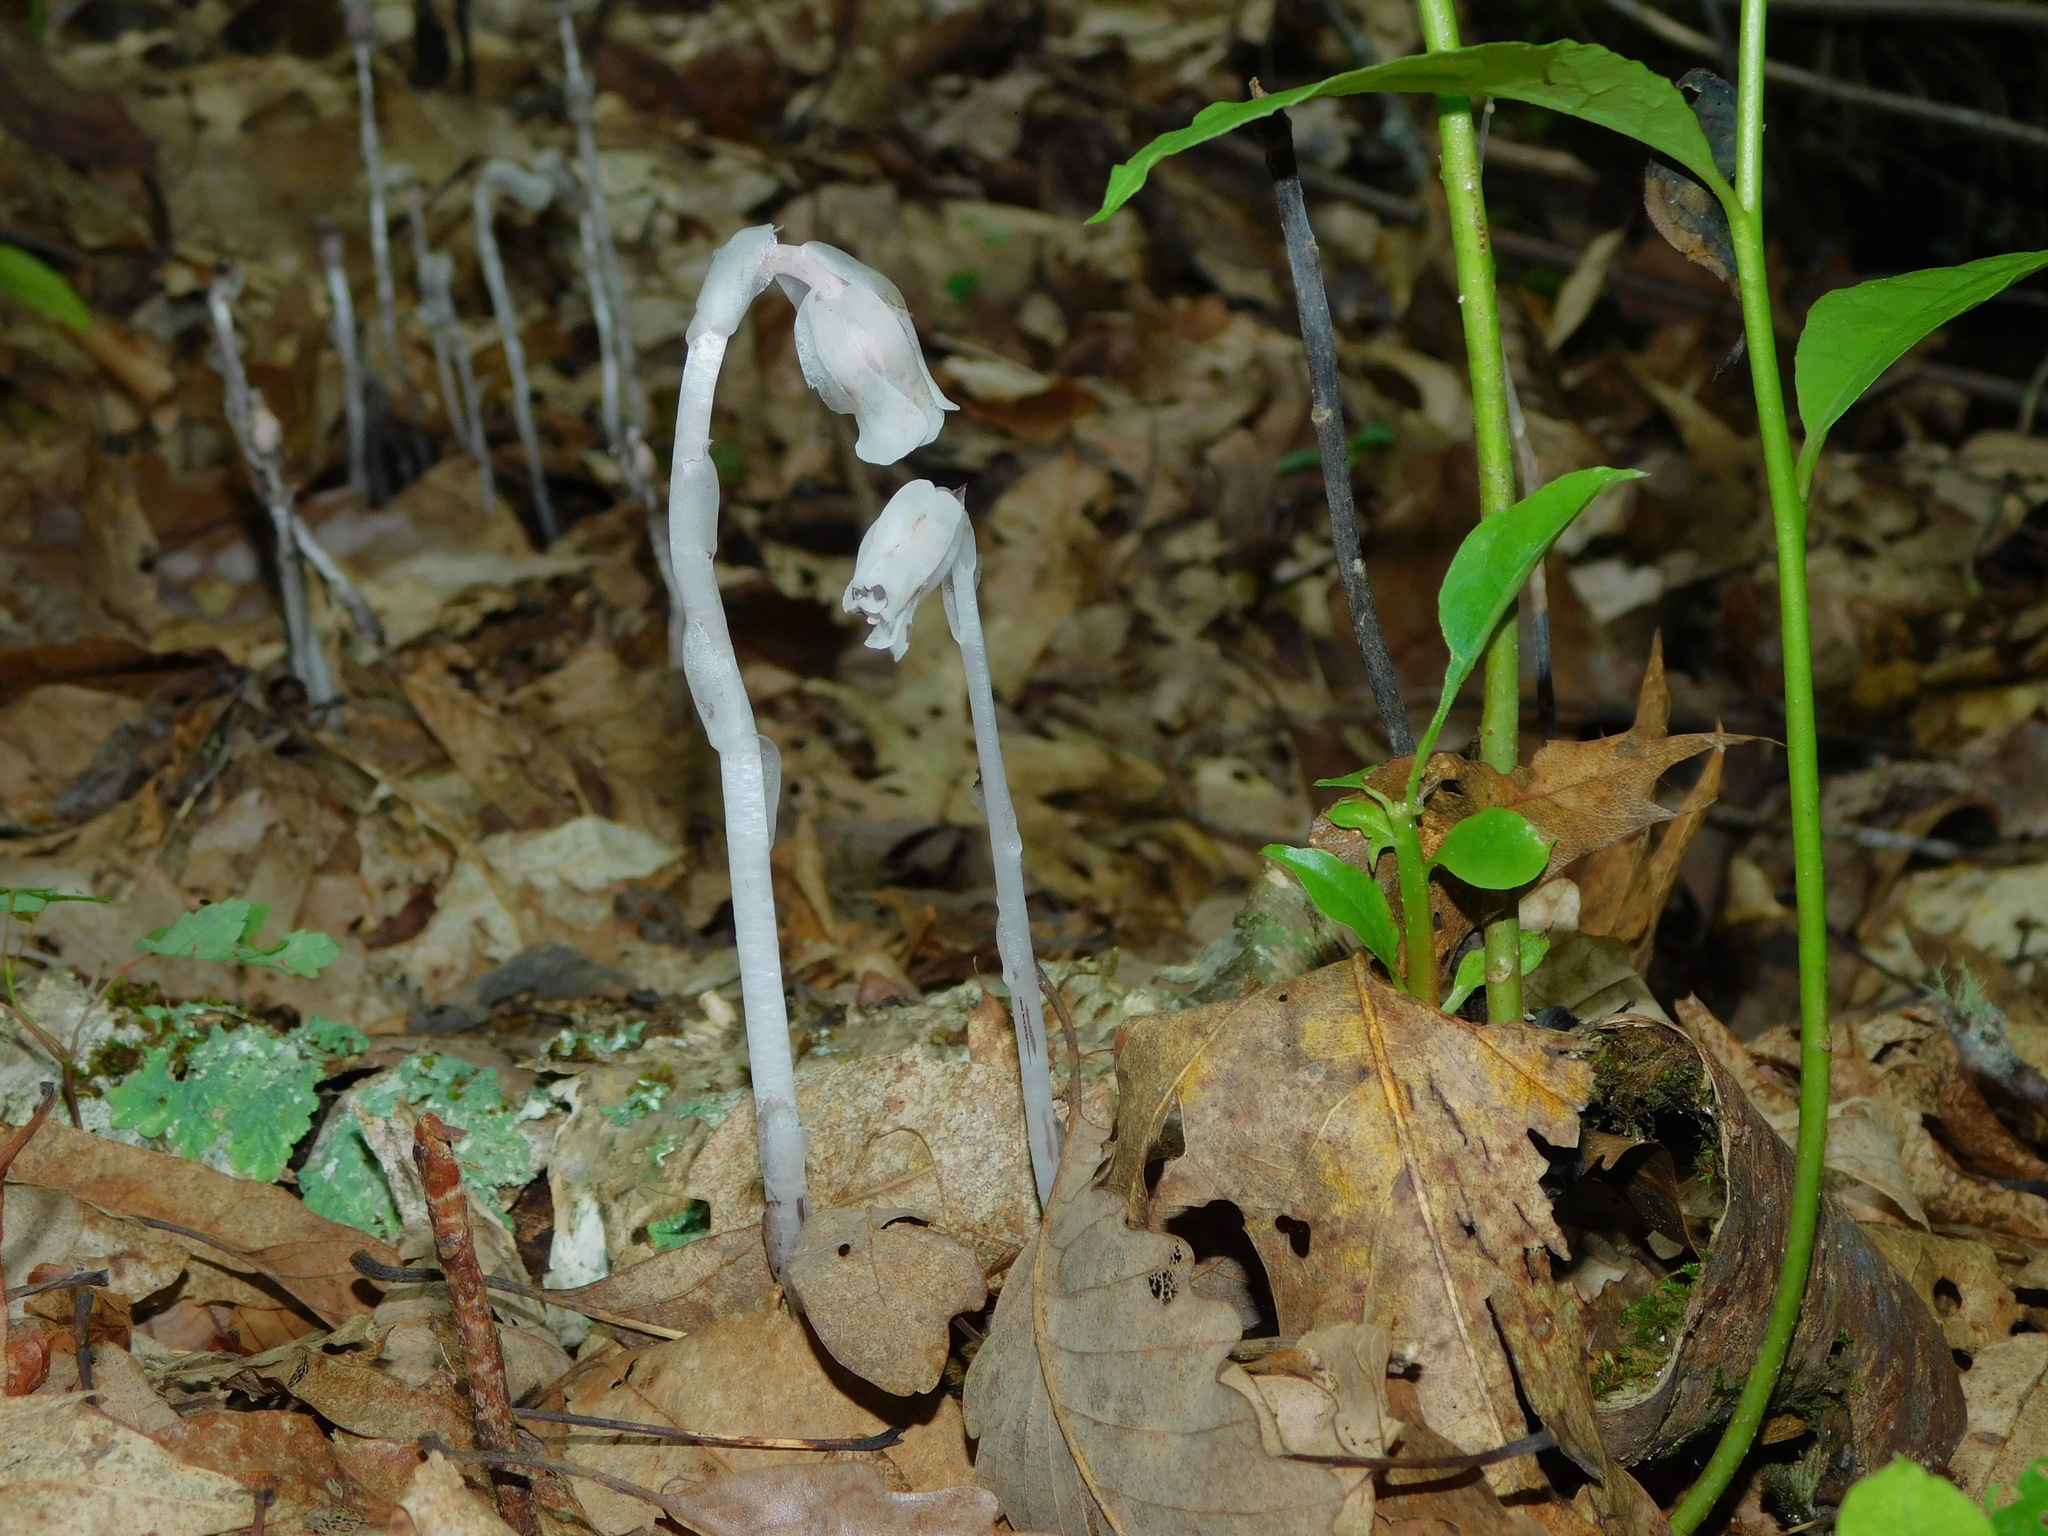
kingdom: Plantae
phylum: Tracheophyta
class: Magnoliopsida
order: Ericales
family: Ericaceae
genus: Monotropa
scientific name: Monotropa uniflora
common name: Convulsion root
